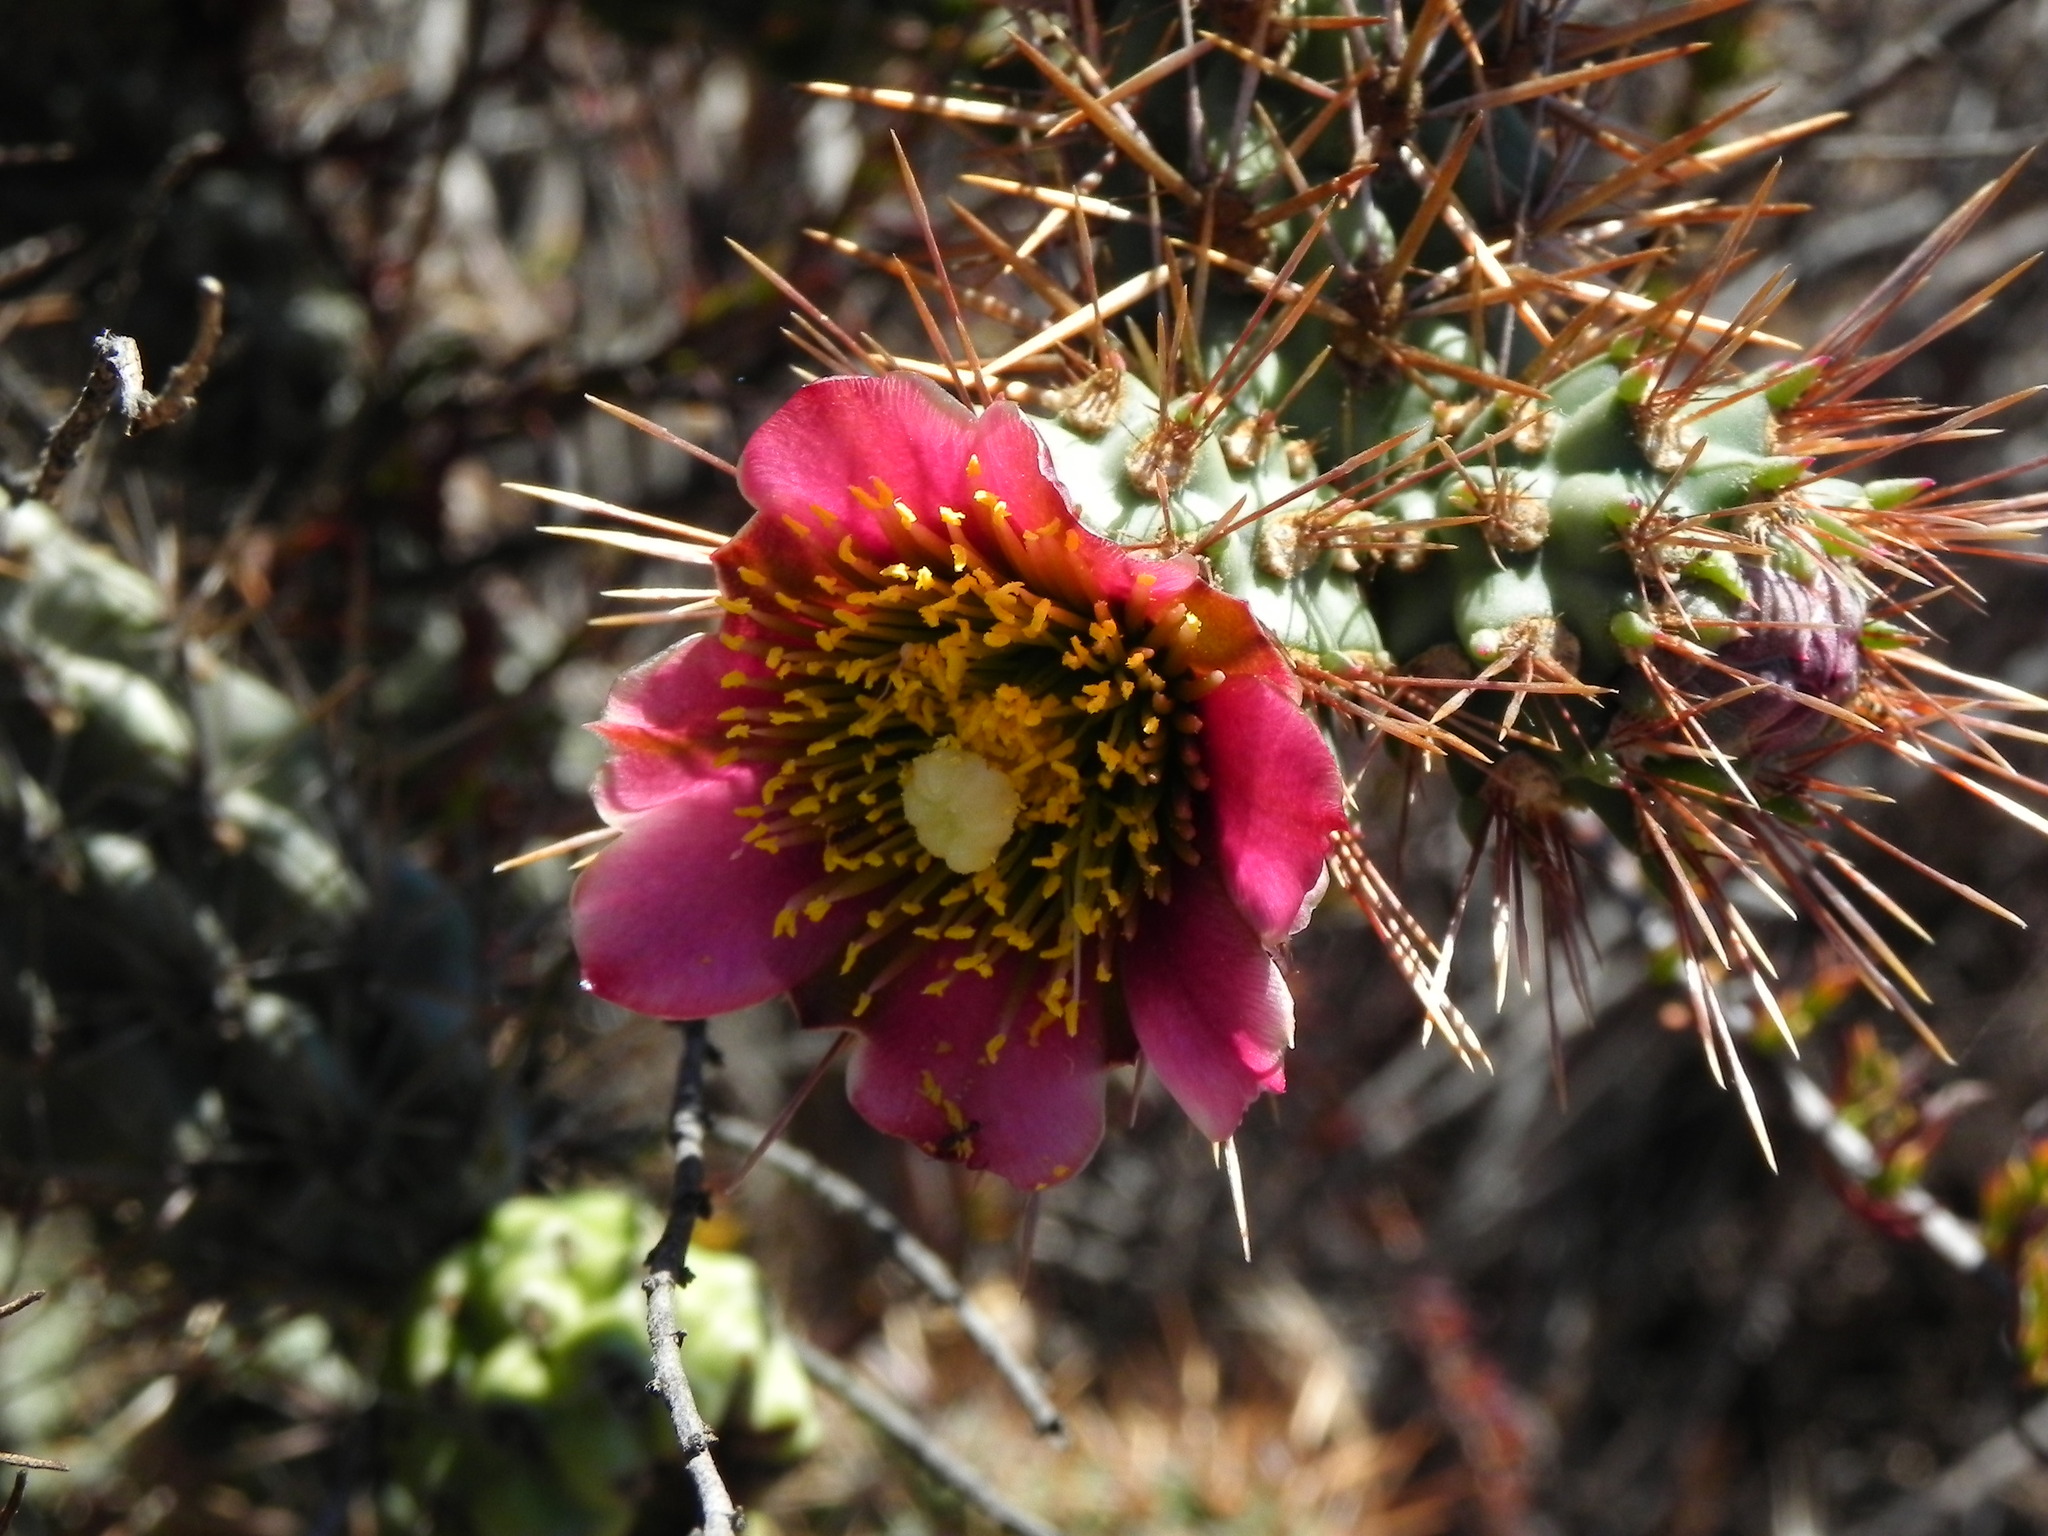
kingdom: Plantae
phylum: Tracheophyta
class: Magnoliopsida
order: Caryophyllales
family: Cactaceae
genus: Cylindropuntia
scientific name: Cylindropuntia prolifera
